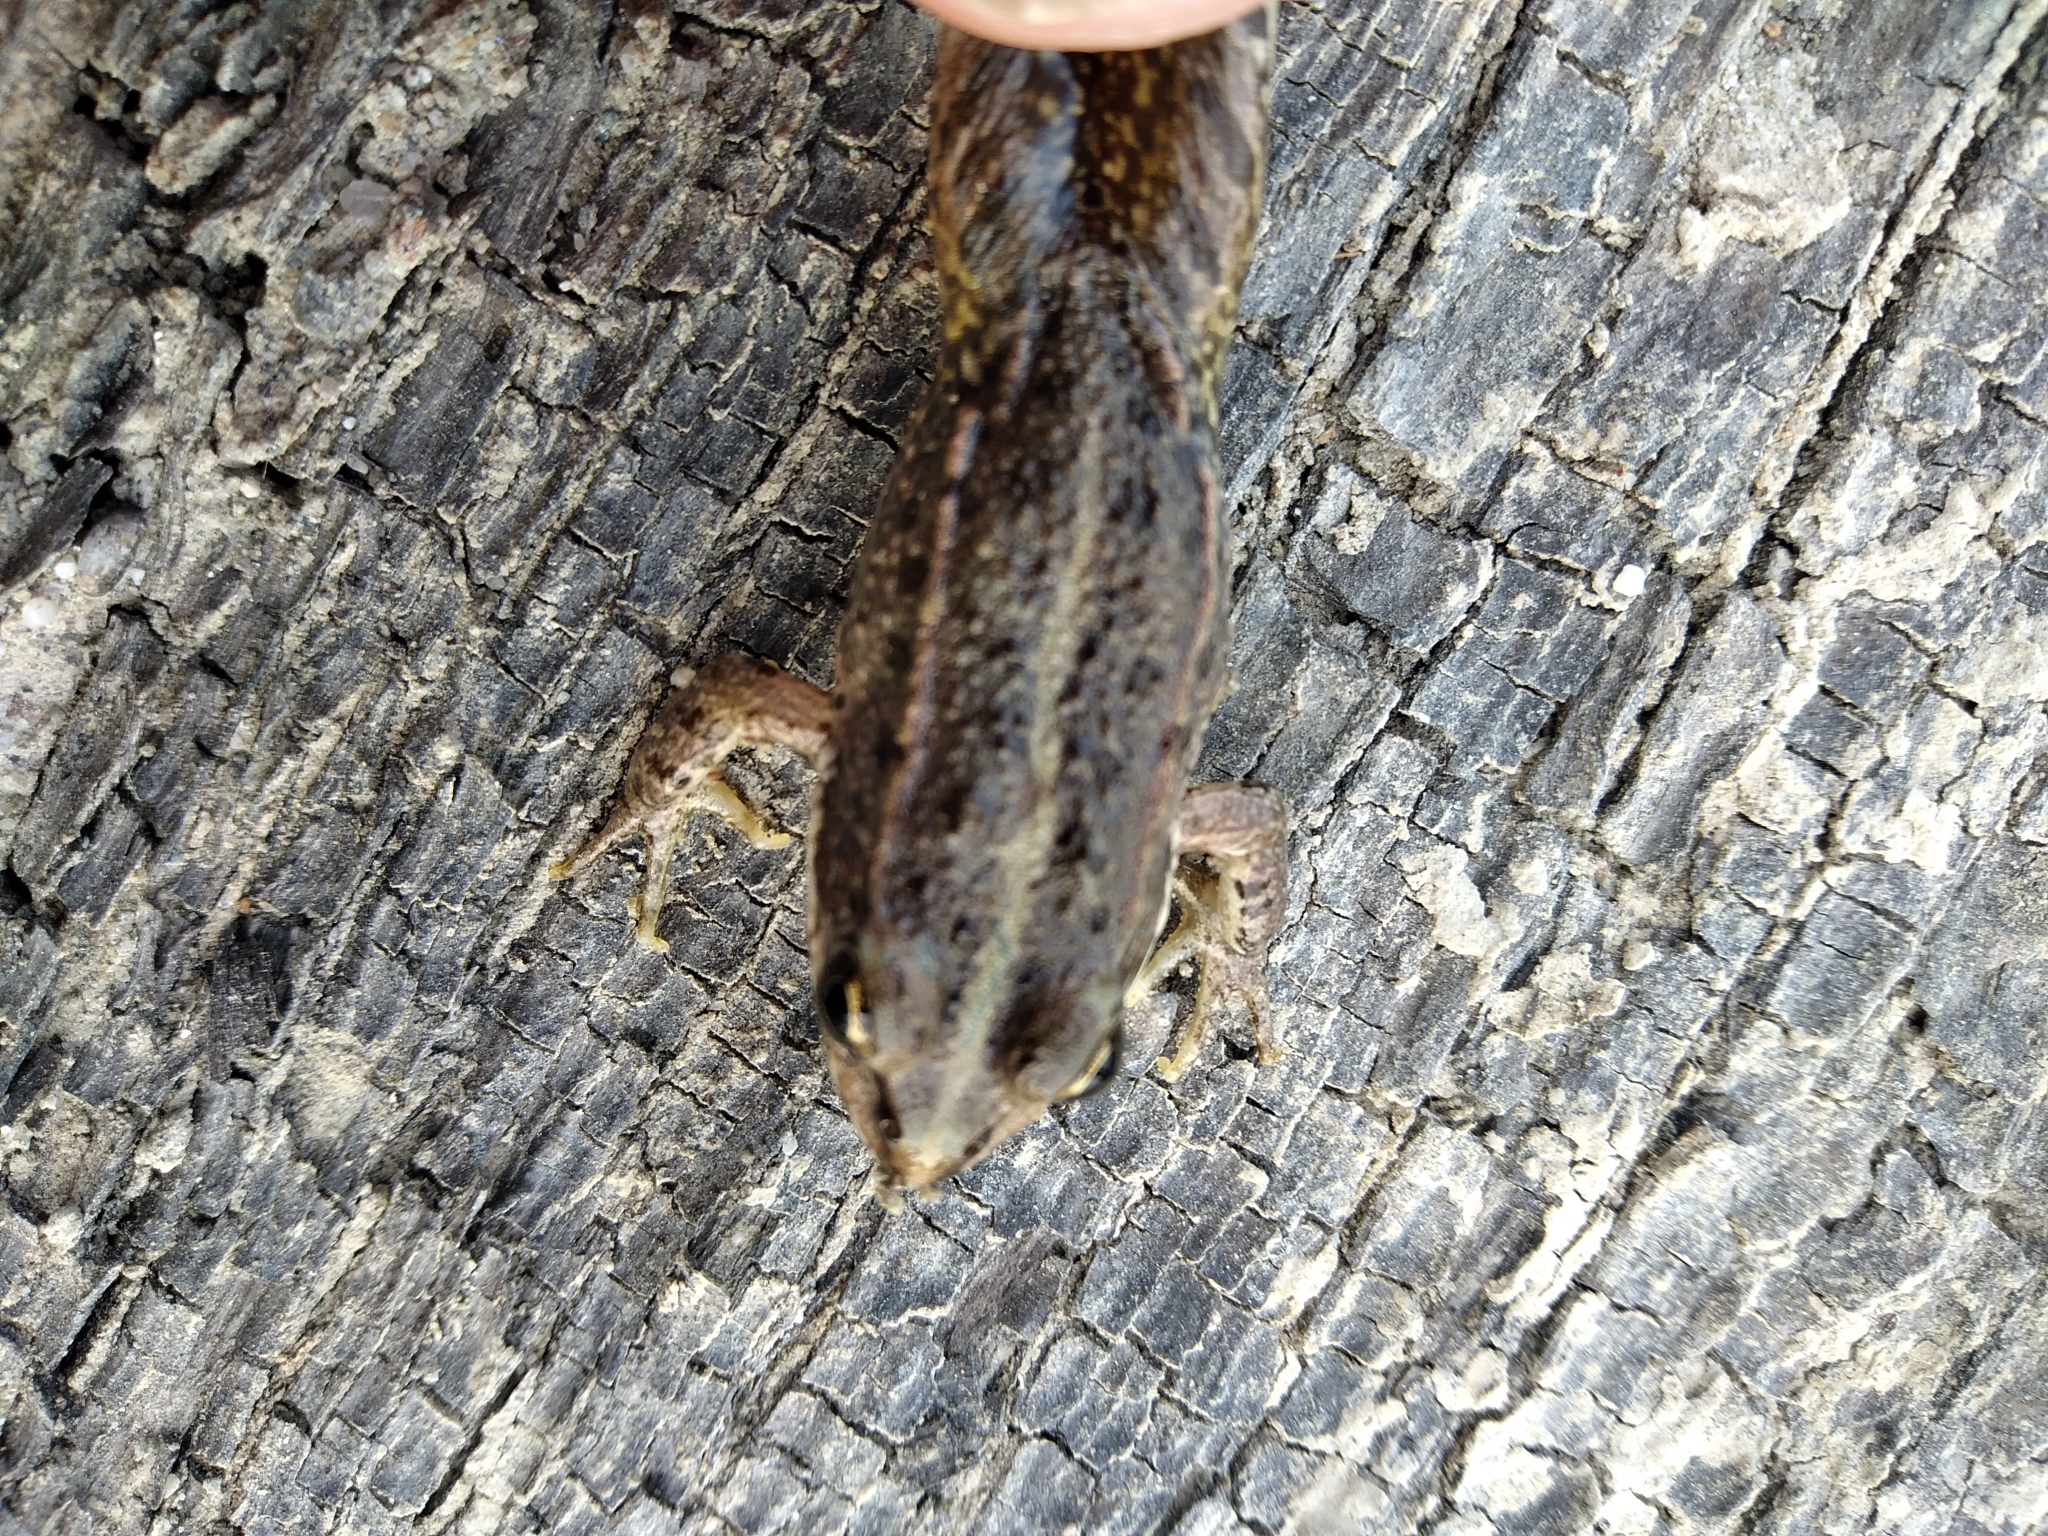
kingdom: Animalia
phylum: Chordata
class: Amphibia
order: Anura
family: Ranidae
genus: Pelophylax
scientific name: Pelophylax
